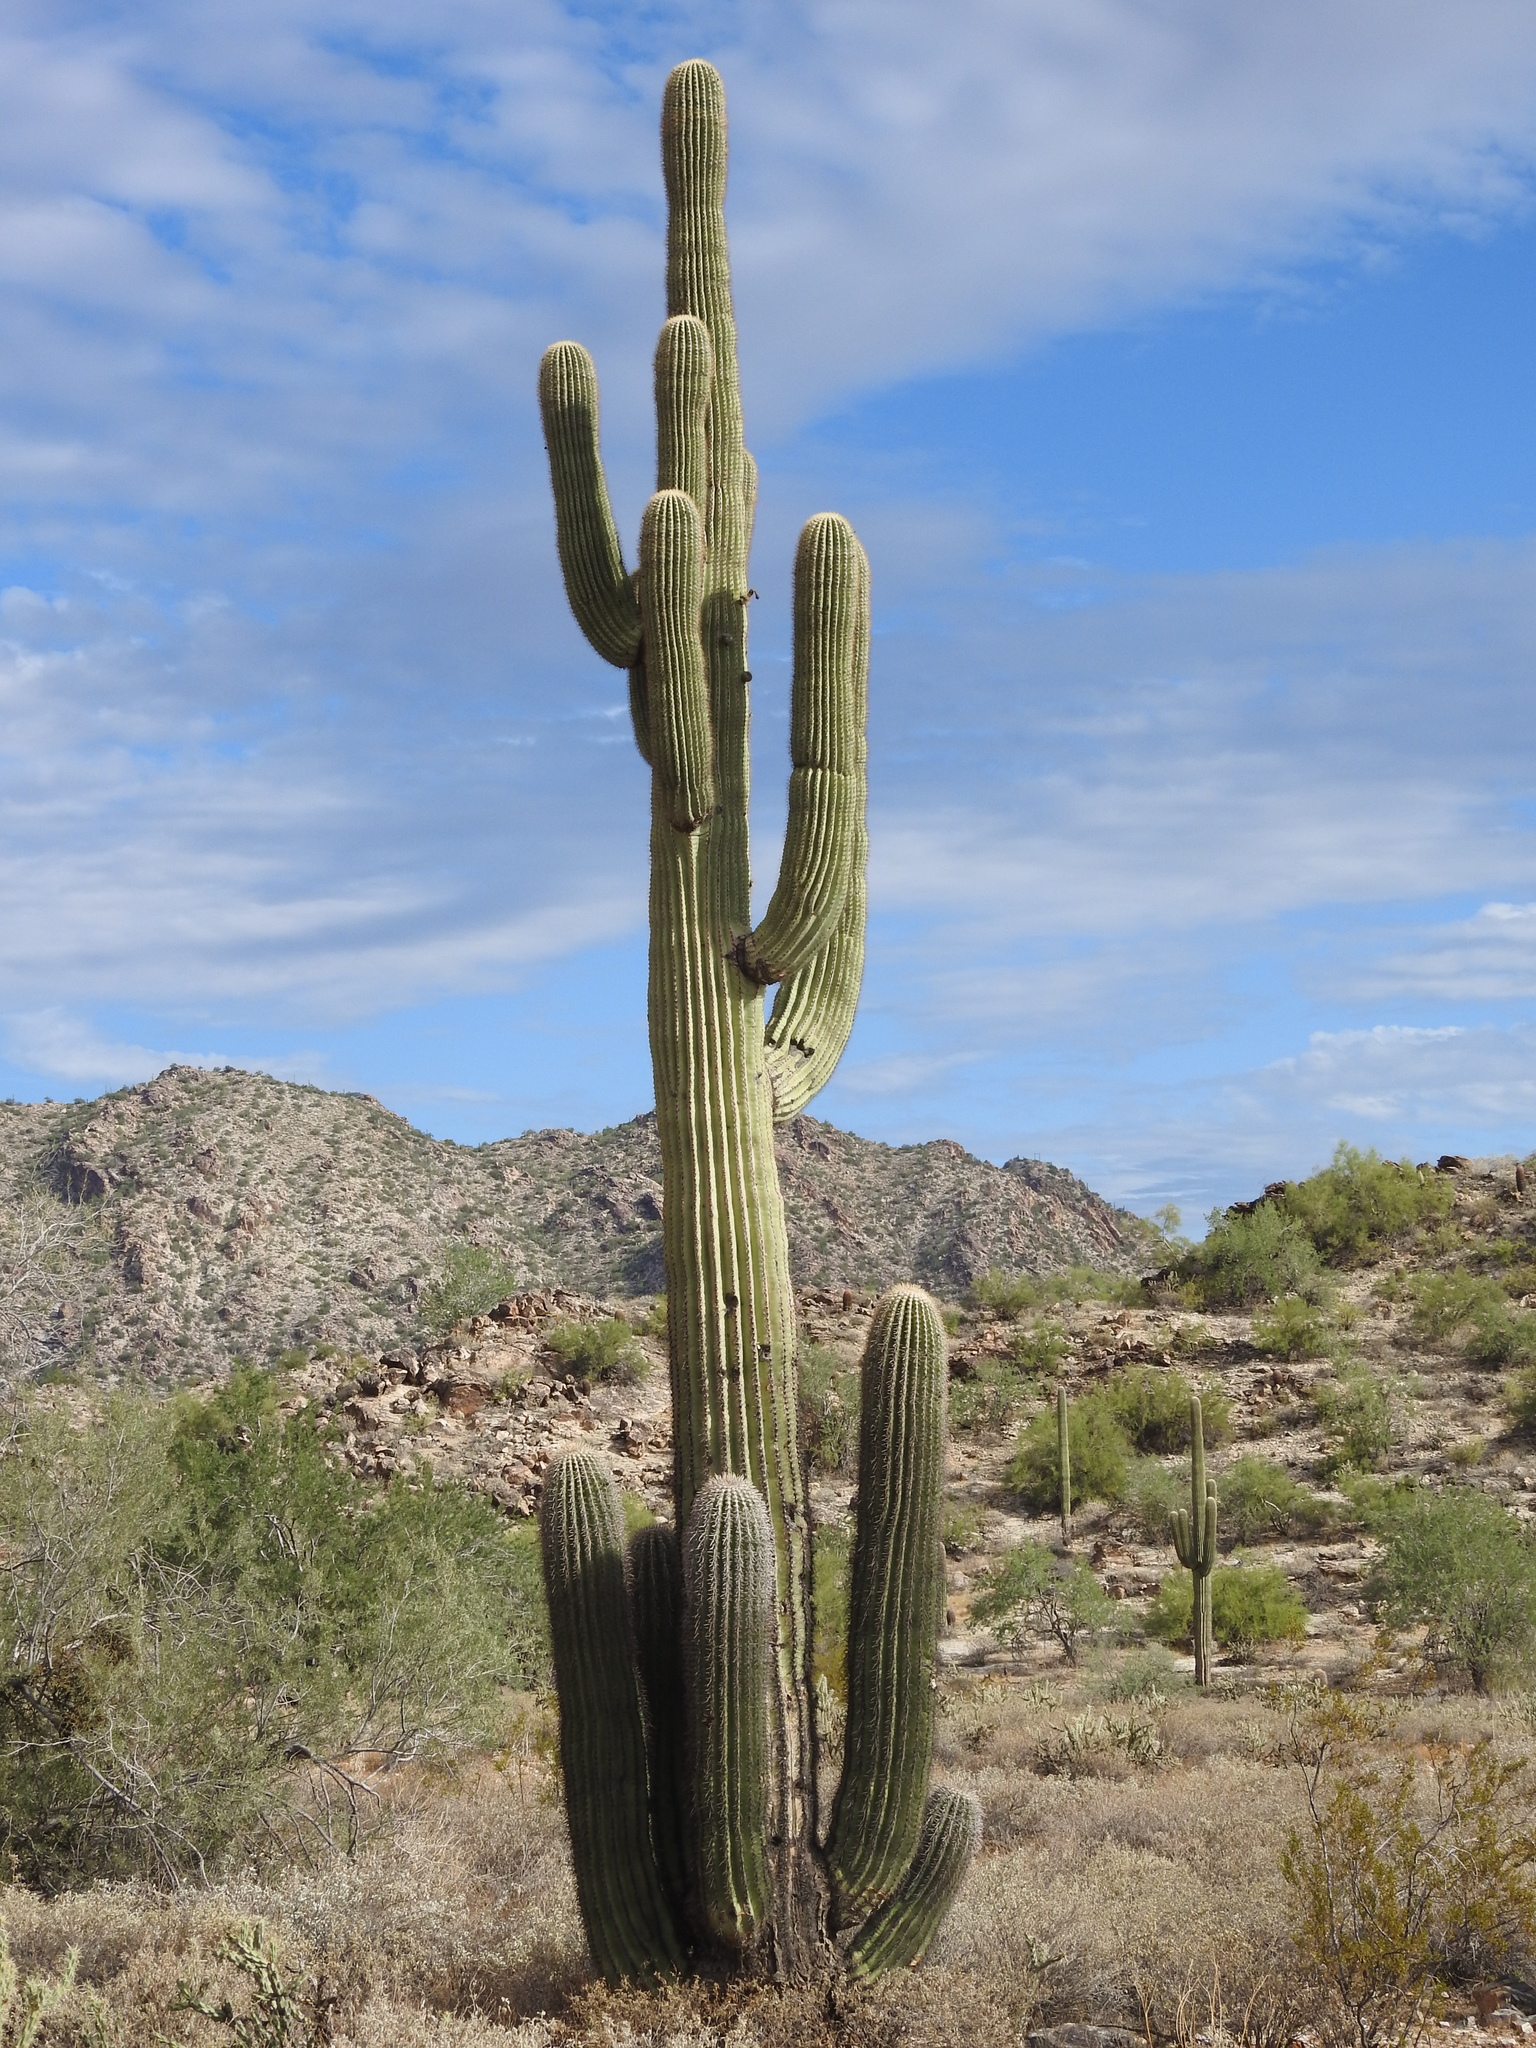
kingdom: Plantae
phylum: Tracheophyta
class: Magnoliopsida
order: Caryophyllales
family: Cactaceae
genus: Carnegiea
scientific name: Carnegiea gigantea
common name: Saguaro
